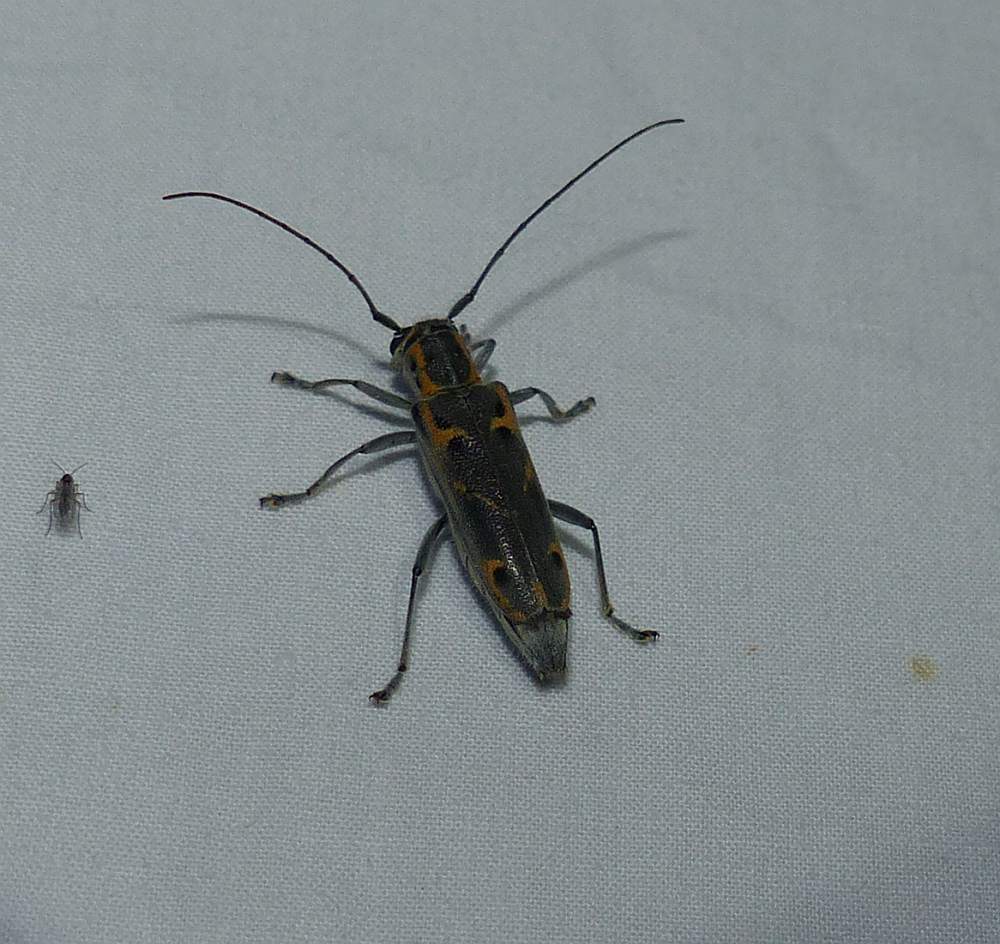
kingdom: Animalia
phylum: Arthropoda
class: Insecta
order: Coleoptera
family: Cerambycidae
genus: Saperda
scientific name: Saperda tridentata
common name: Elm borer
